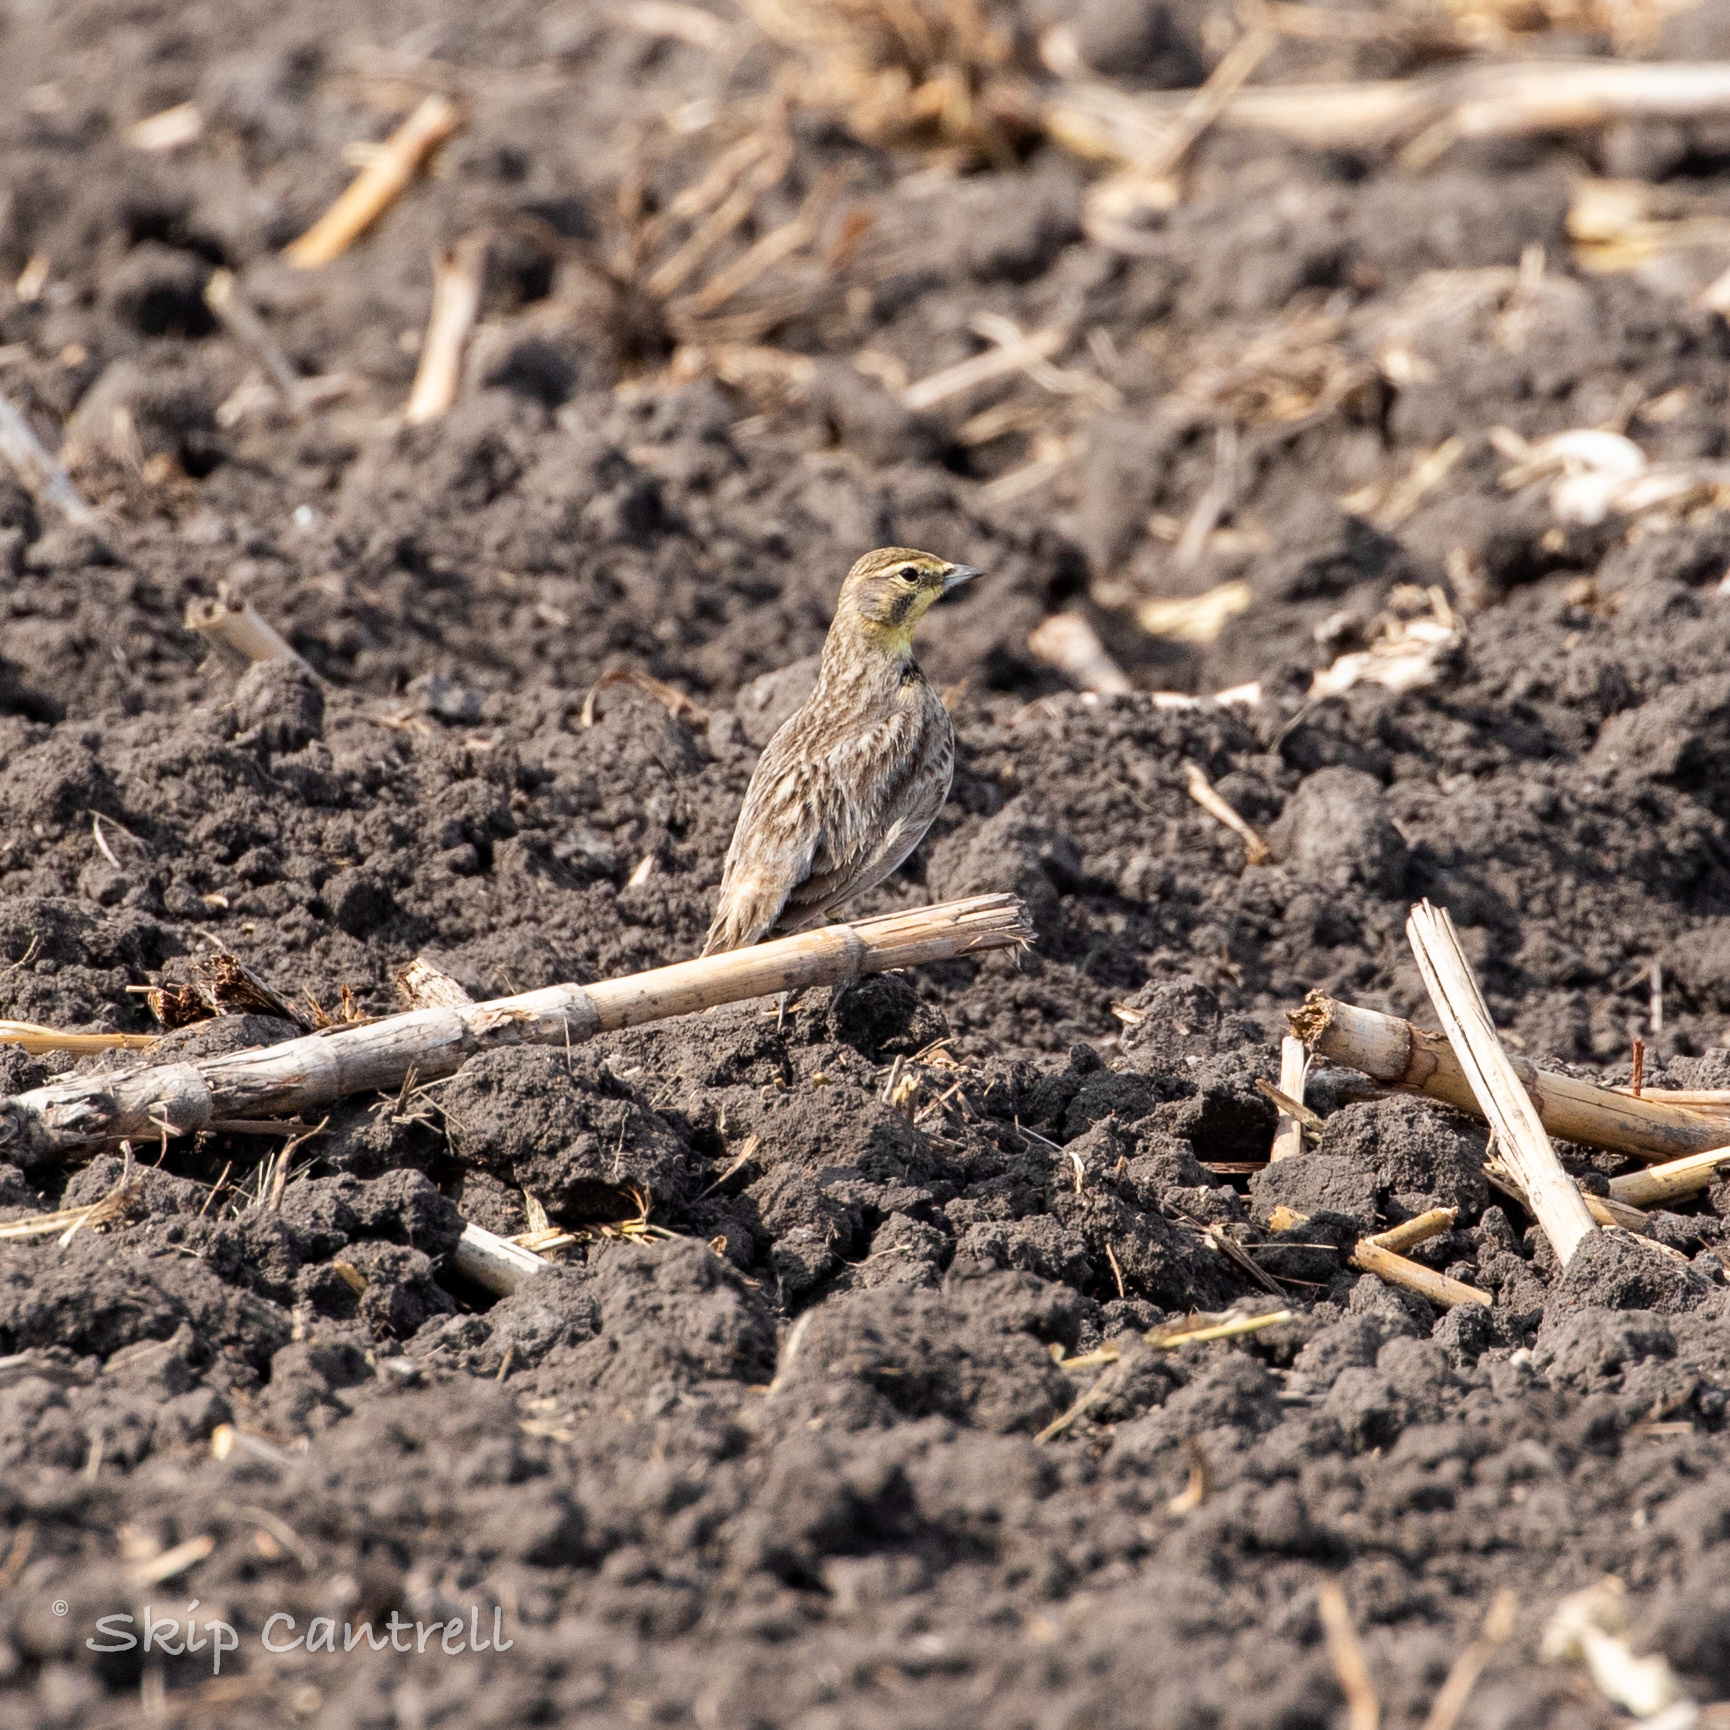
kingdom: Animalia
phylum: Chordata
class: Aves
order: Passeriformes
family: Alaudidae
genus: Eremophila
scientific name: Eremophila alpestris
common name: Horned lark
